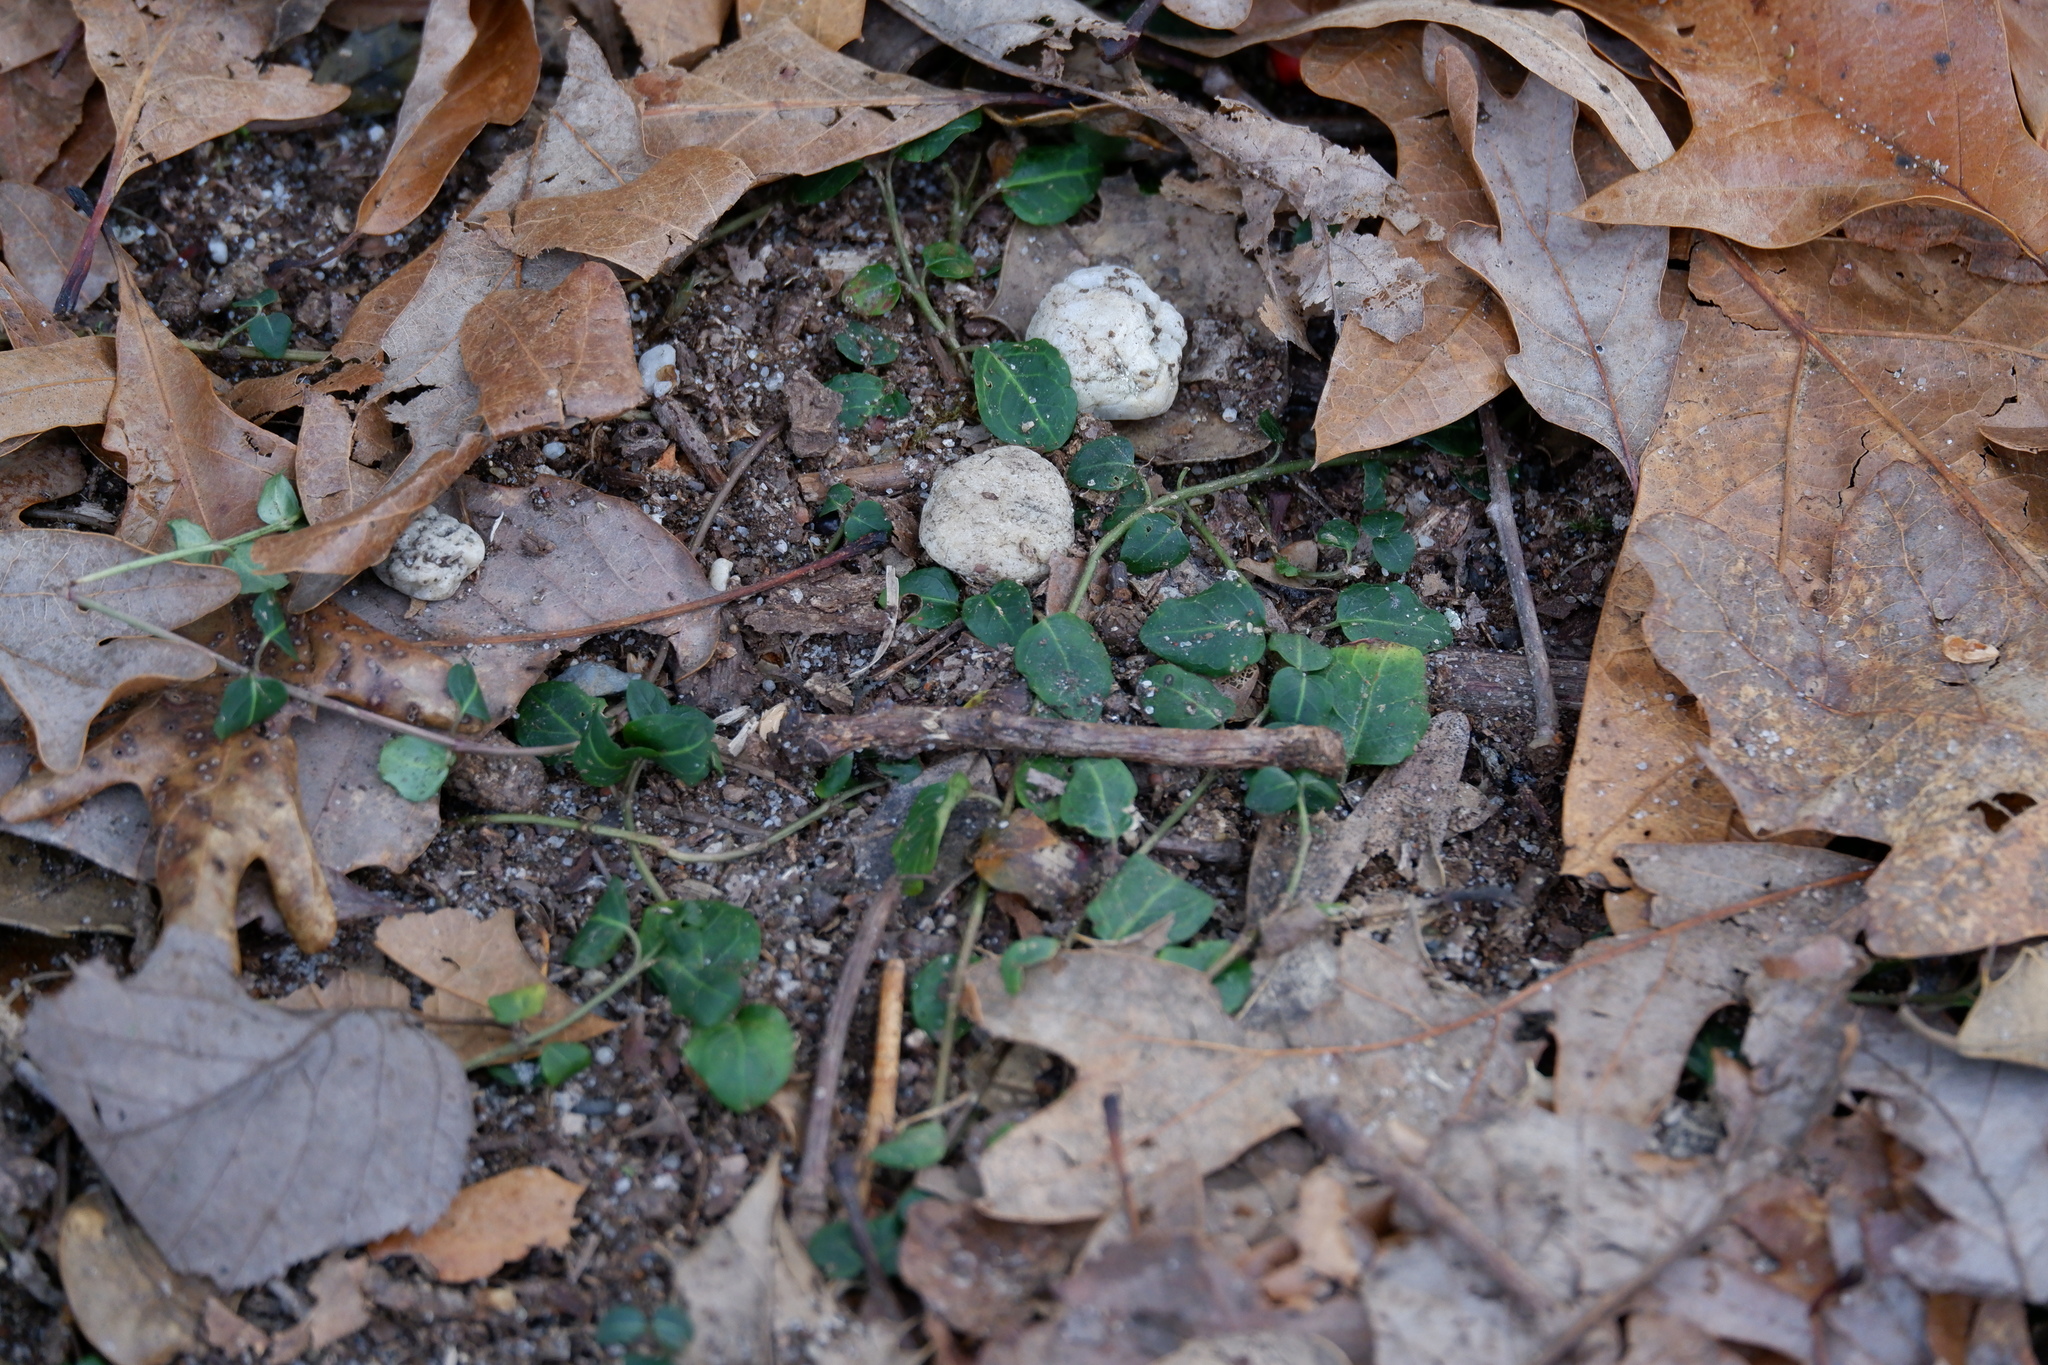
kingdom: Plantae
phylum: Tracheophyta
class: Magnoliopsida
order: Gentianales
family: Rubiaceae
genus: Mitchella
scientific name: Mitchella repens
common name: Partridge-berry
